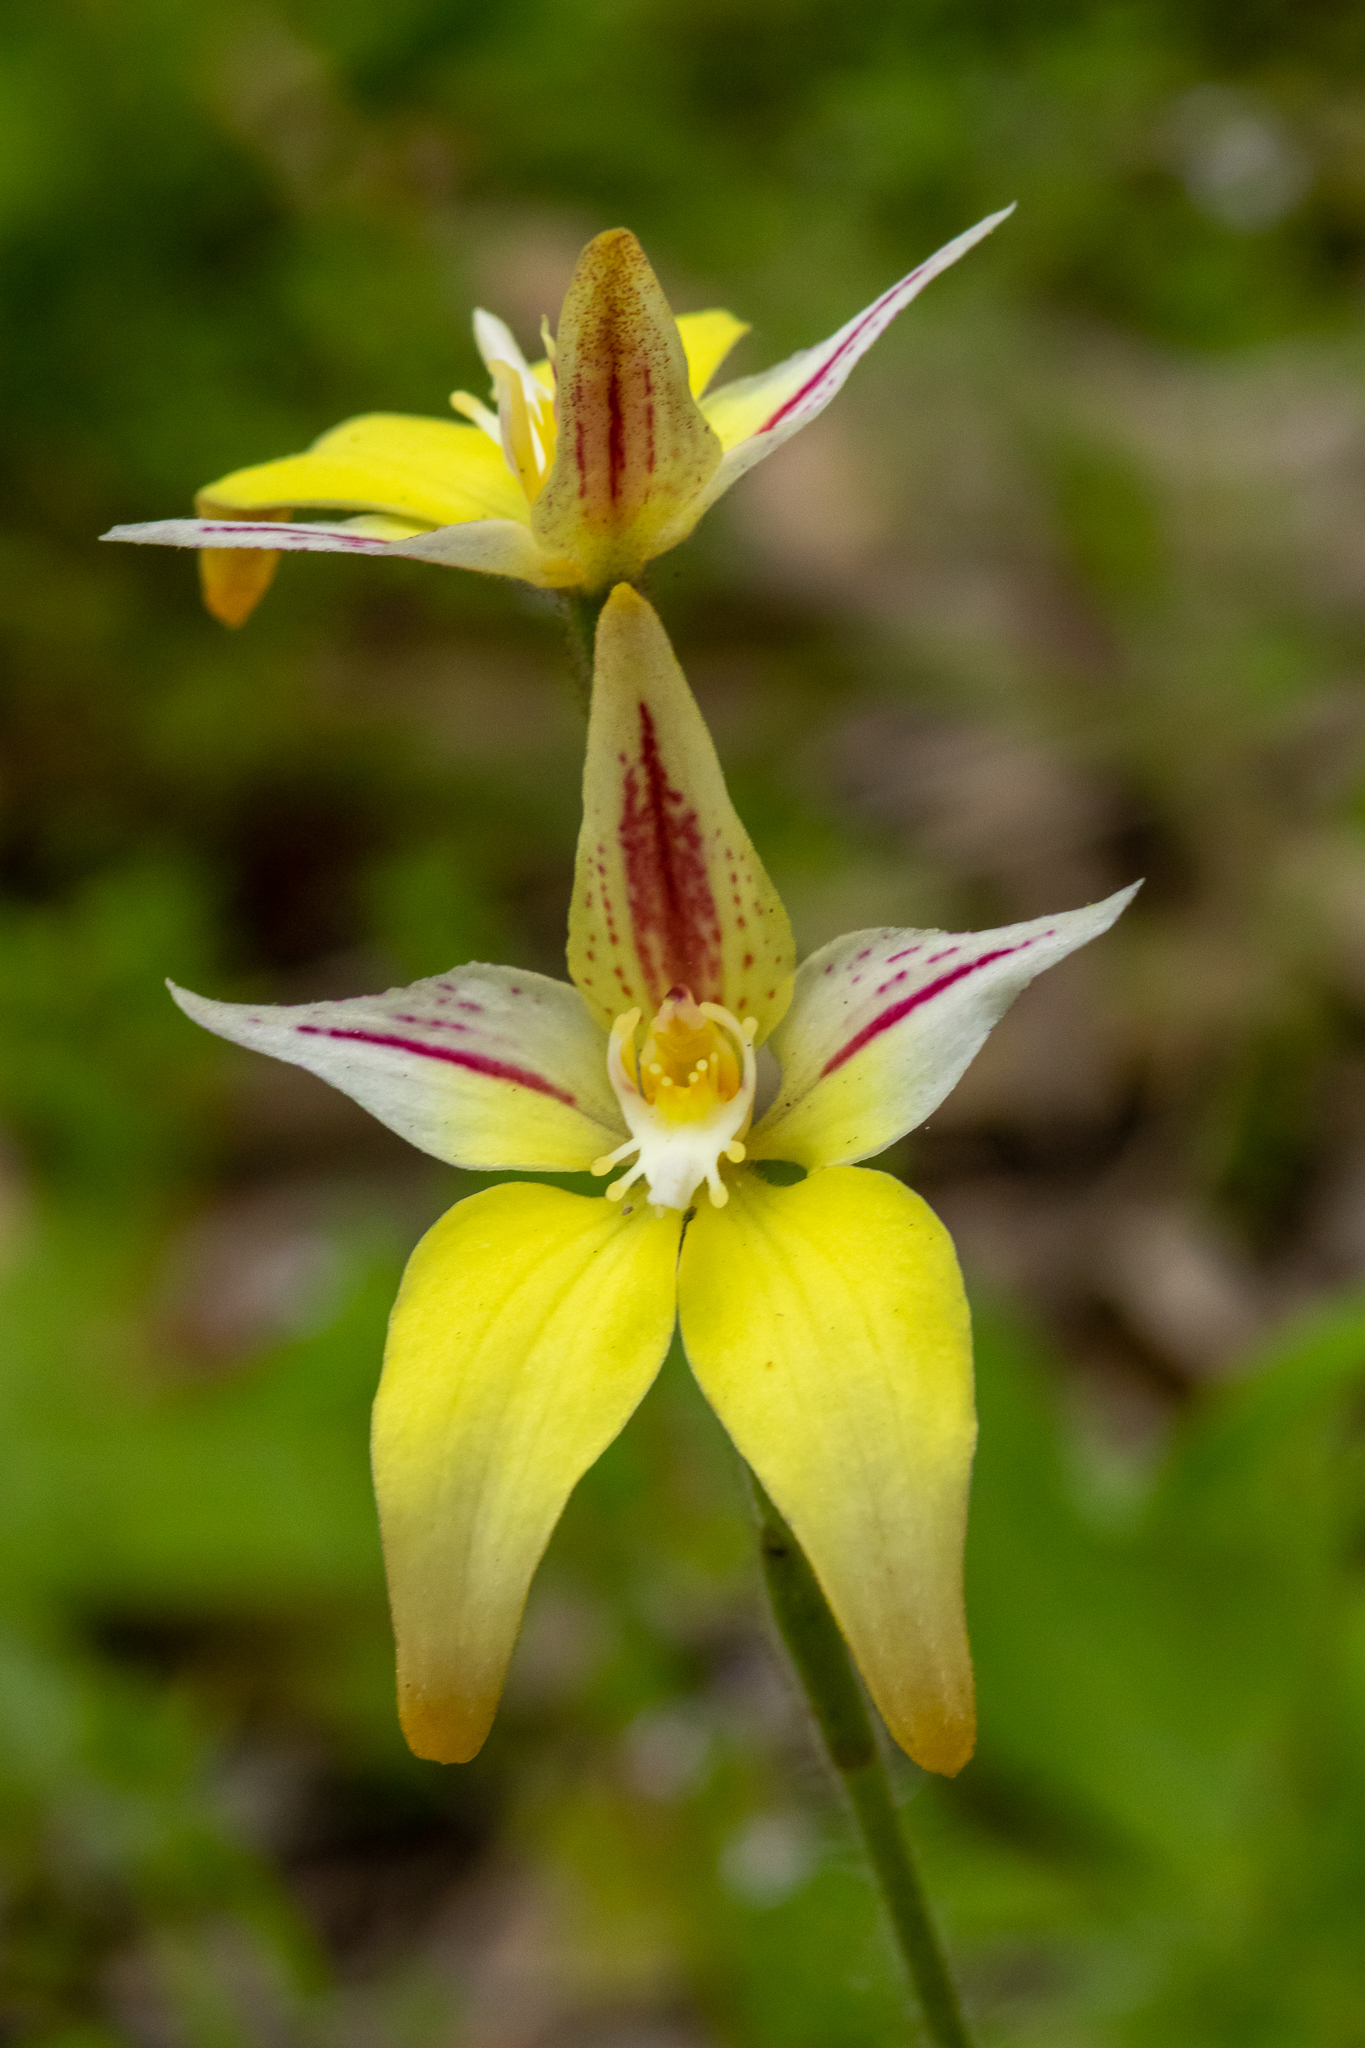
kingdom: Plantae
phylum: Tracheophyta
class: Liliopsida
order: Asparagales
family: Orchidaceae
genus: Caladenia
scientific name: Caladenia flava
